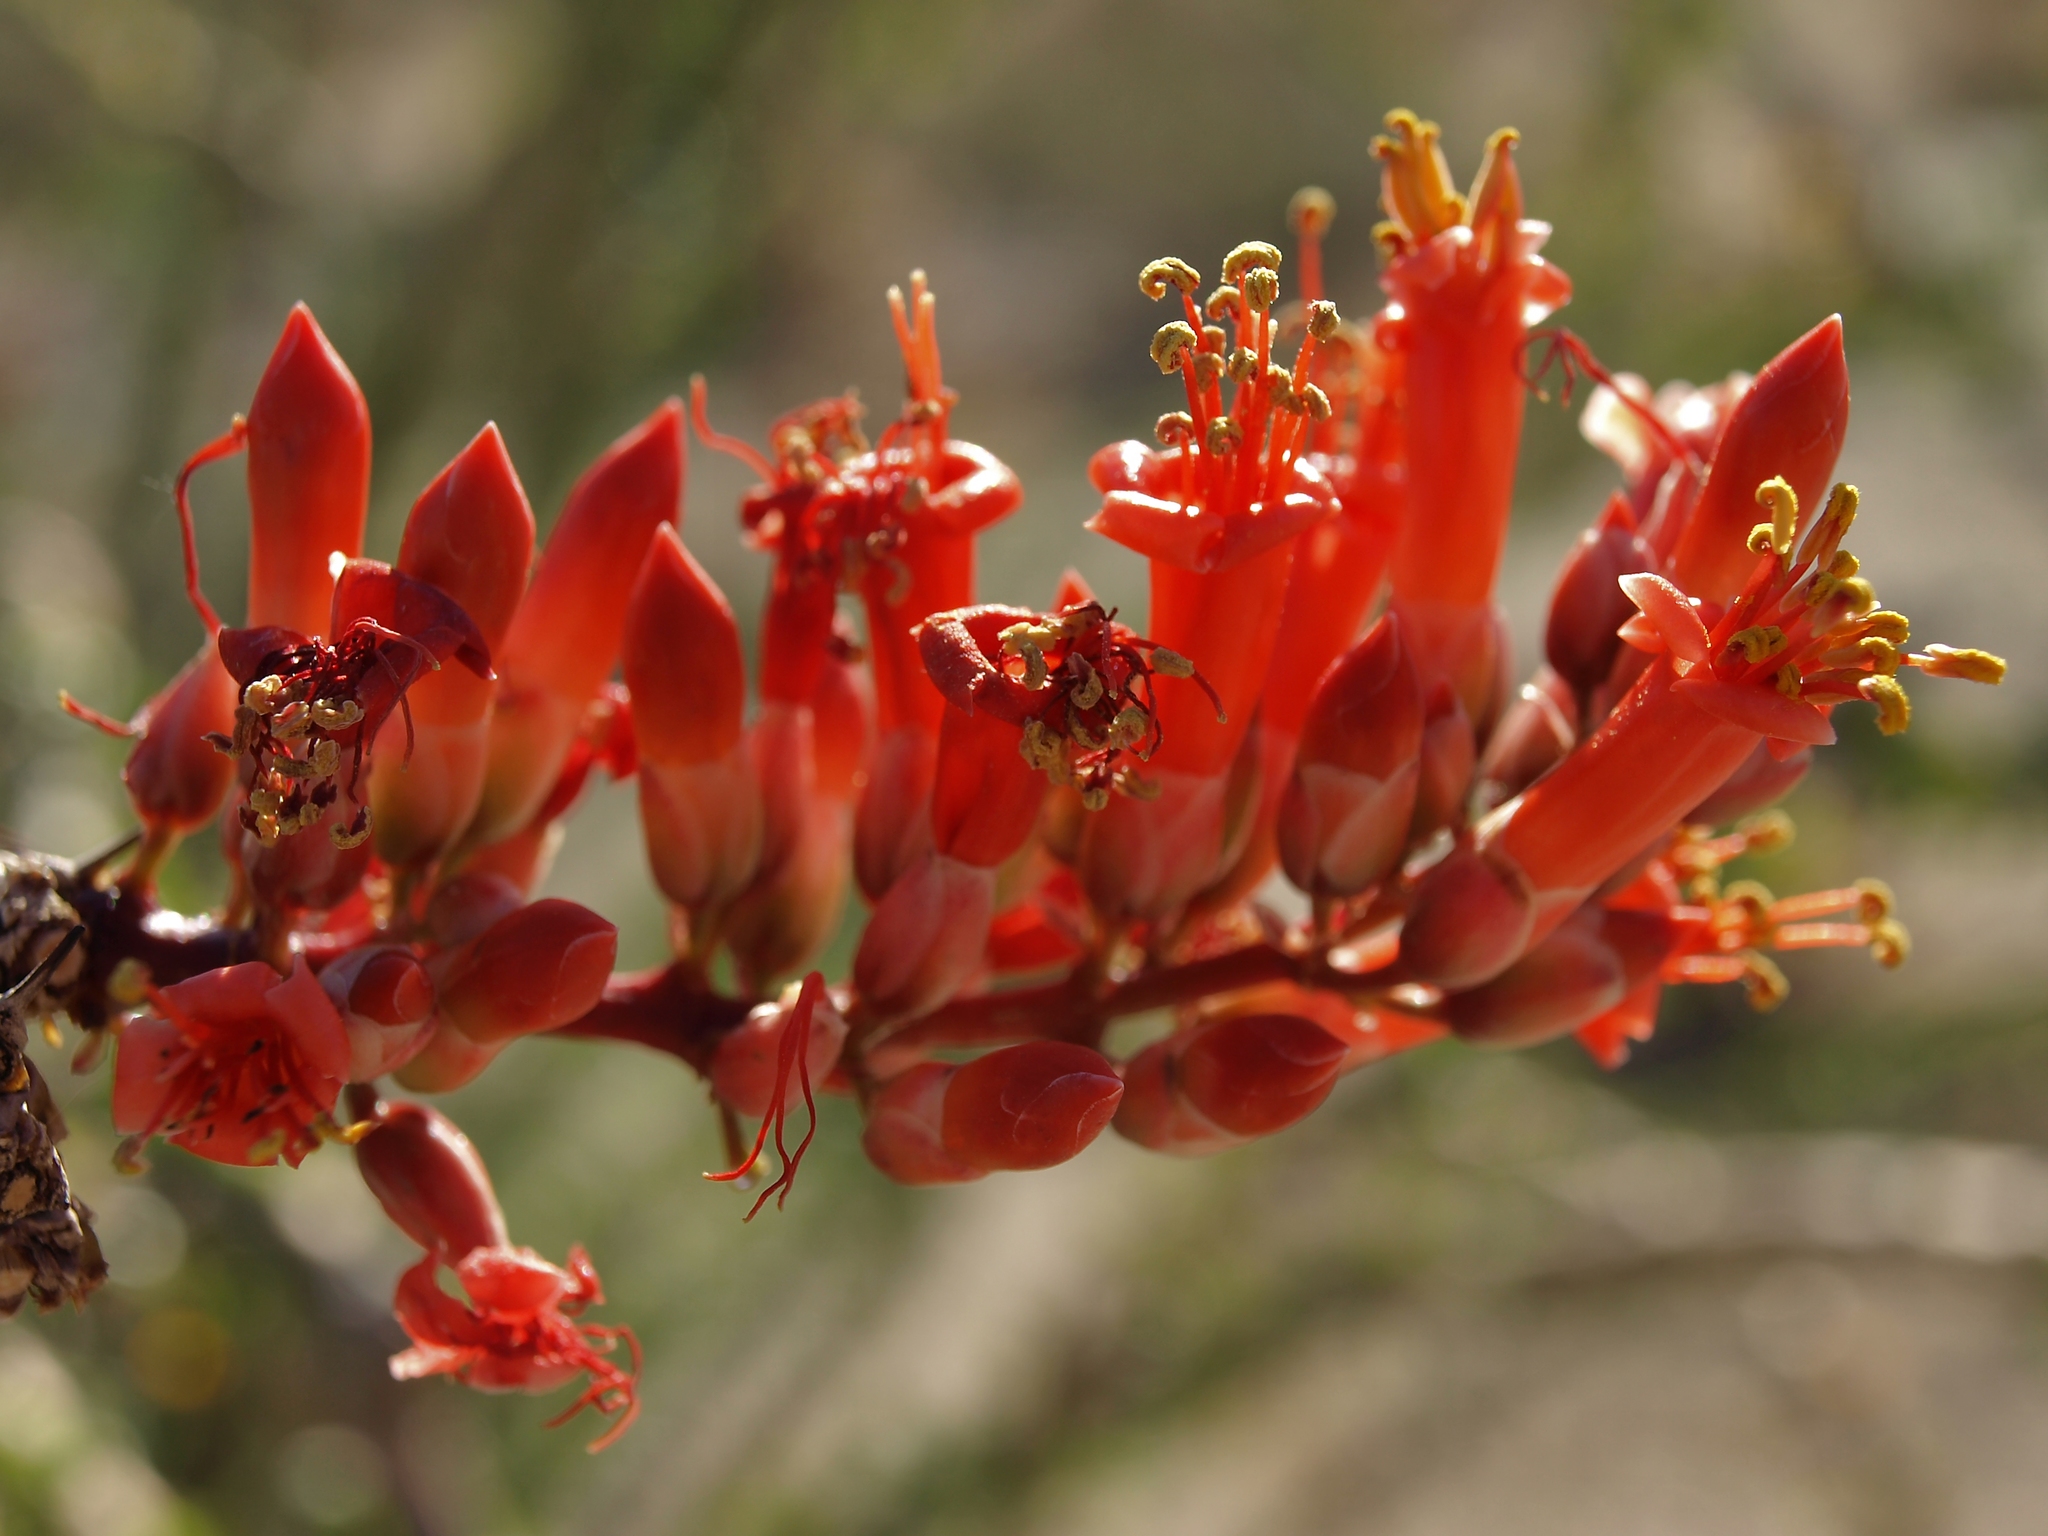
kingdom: Plantae
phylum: Tracheophyta
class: Magnoliopsida
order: Ericales
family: Fouquieriaceae
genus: Fouquieria
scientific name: Fouquieria splendens
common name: Vine-cactus
